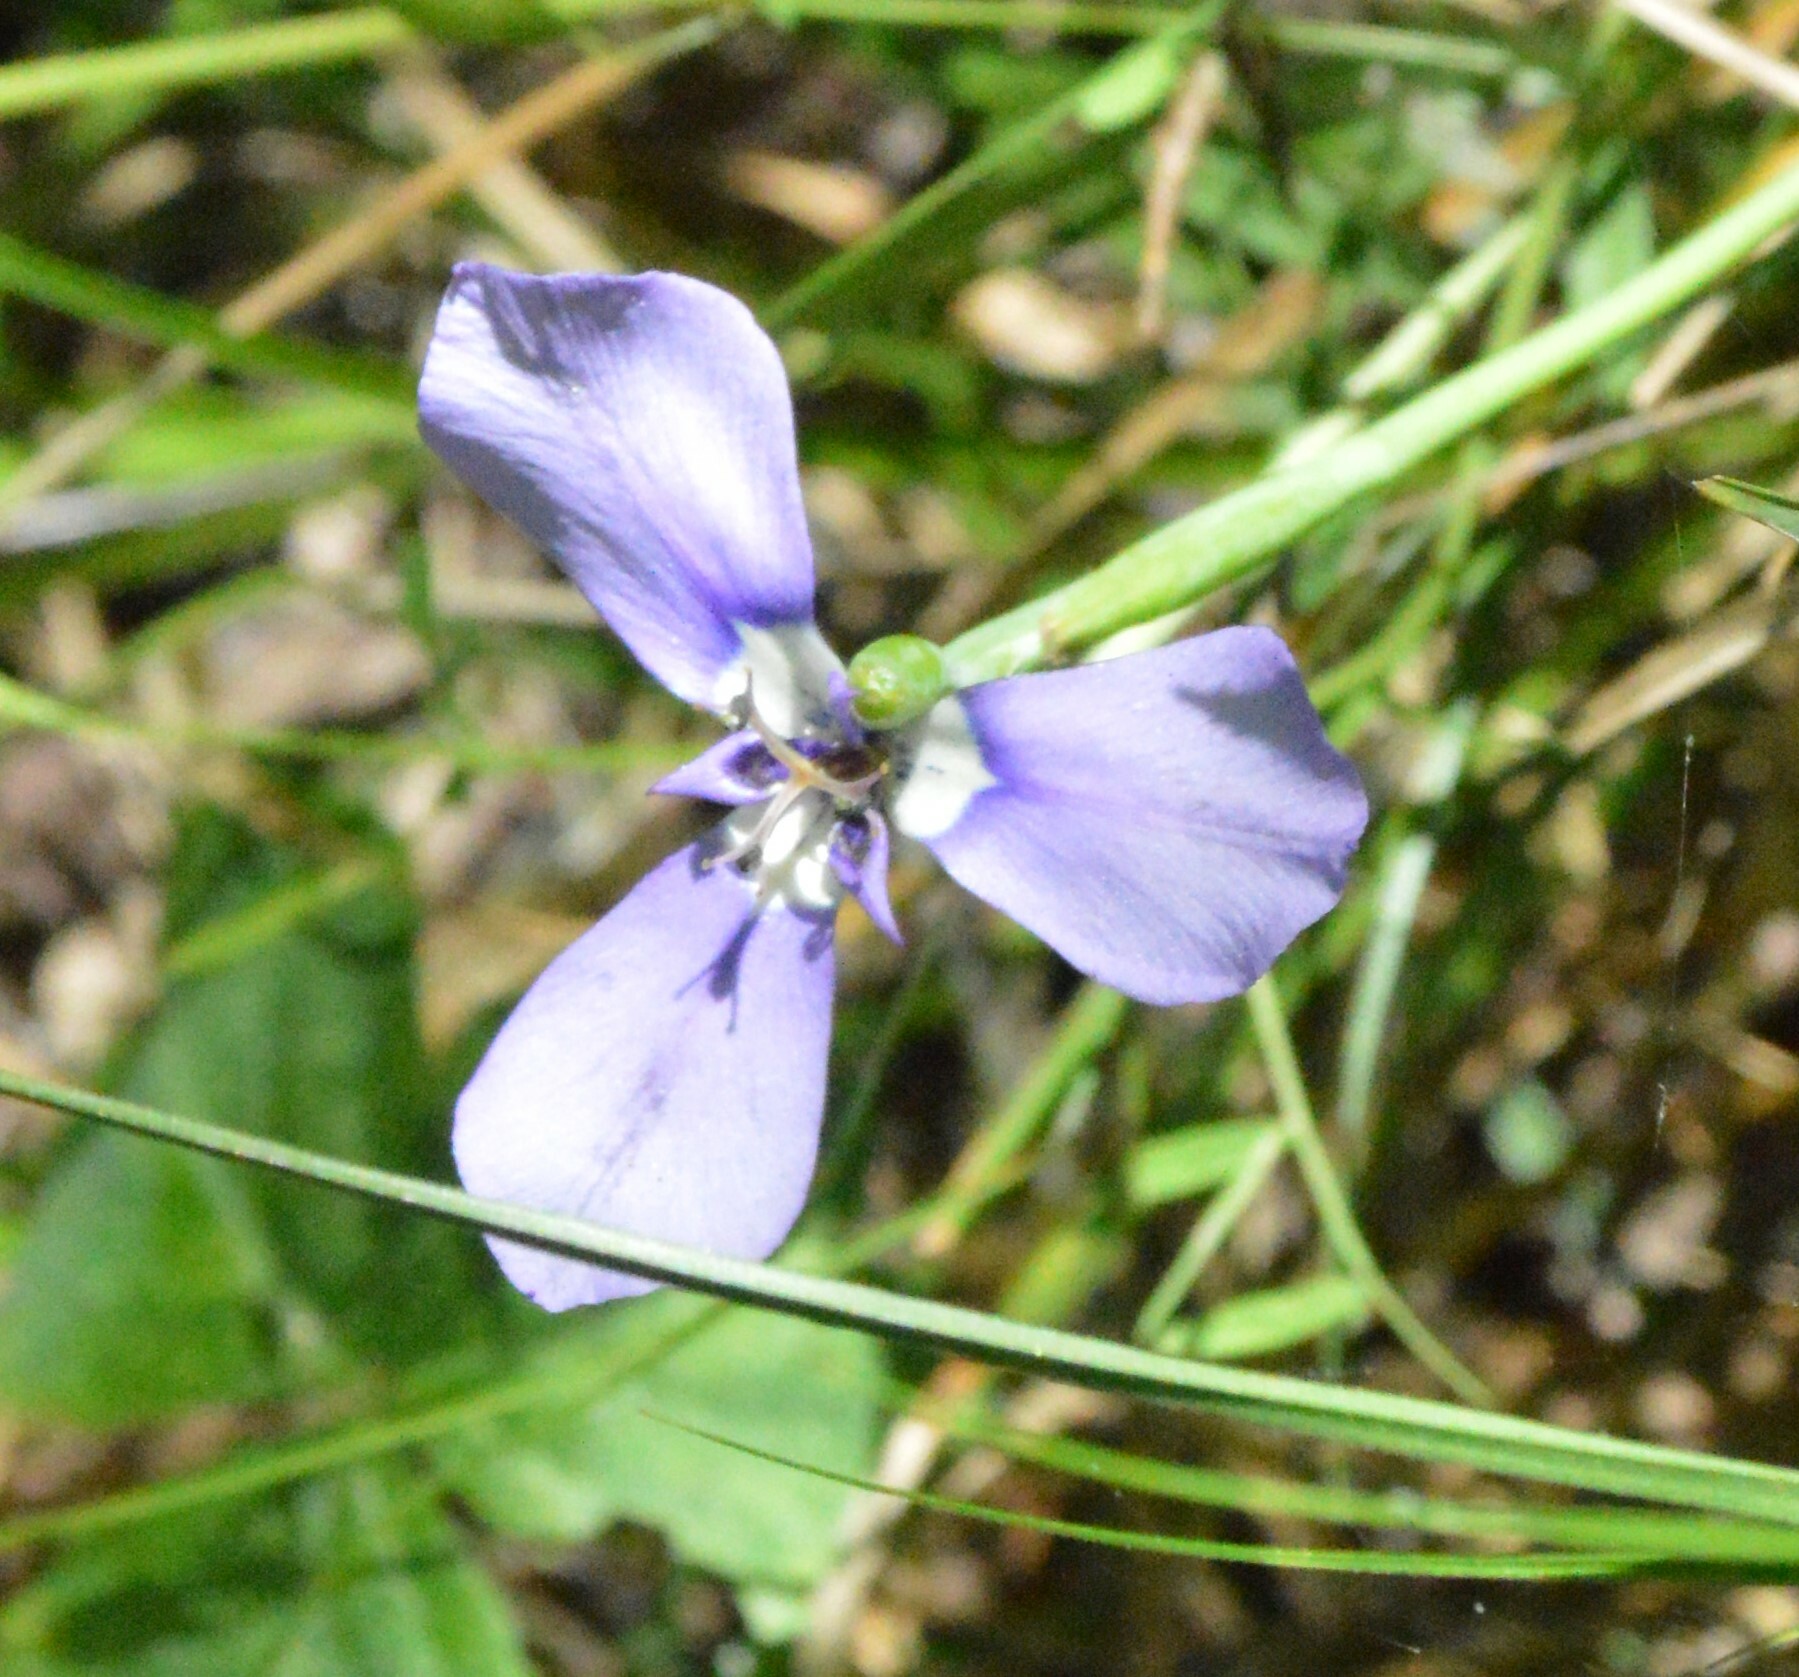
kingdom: Plantae
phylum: Tracheophyta
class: Liliopsida
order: Asparagales
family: Iridaceae
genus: Herbertia
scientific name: Herbertia lahue
